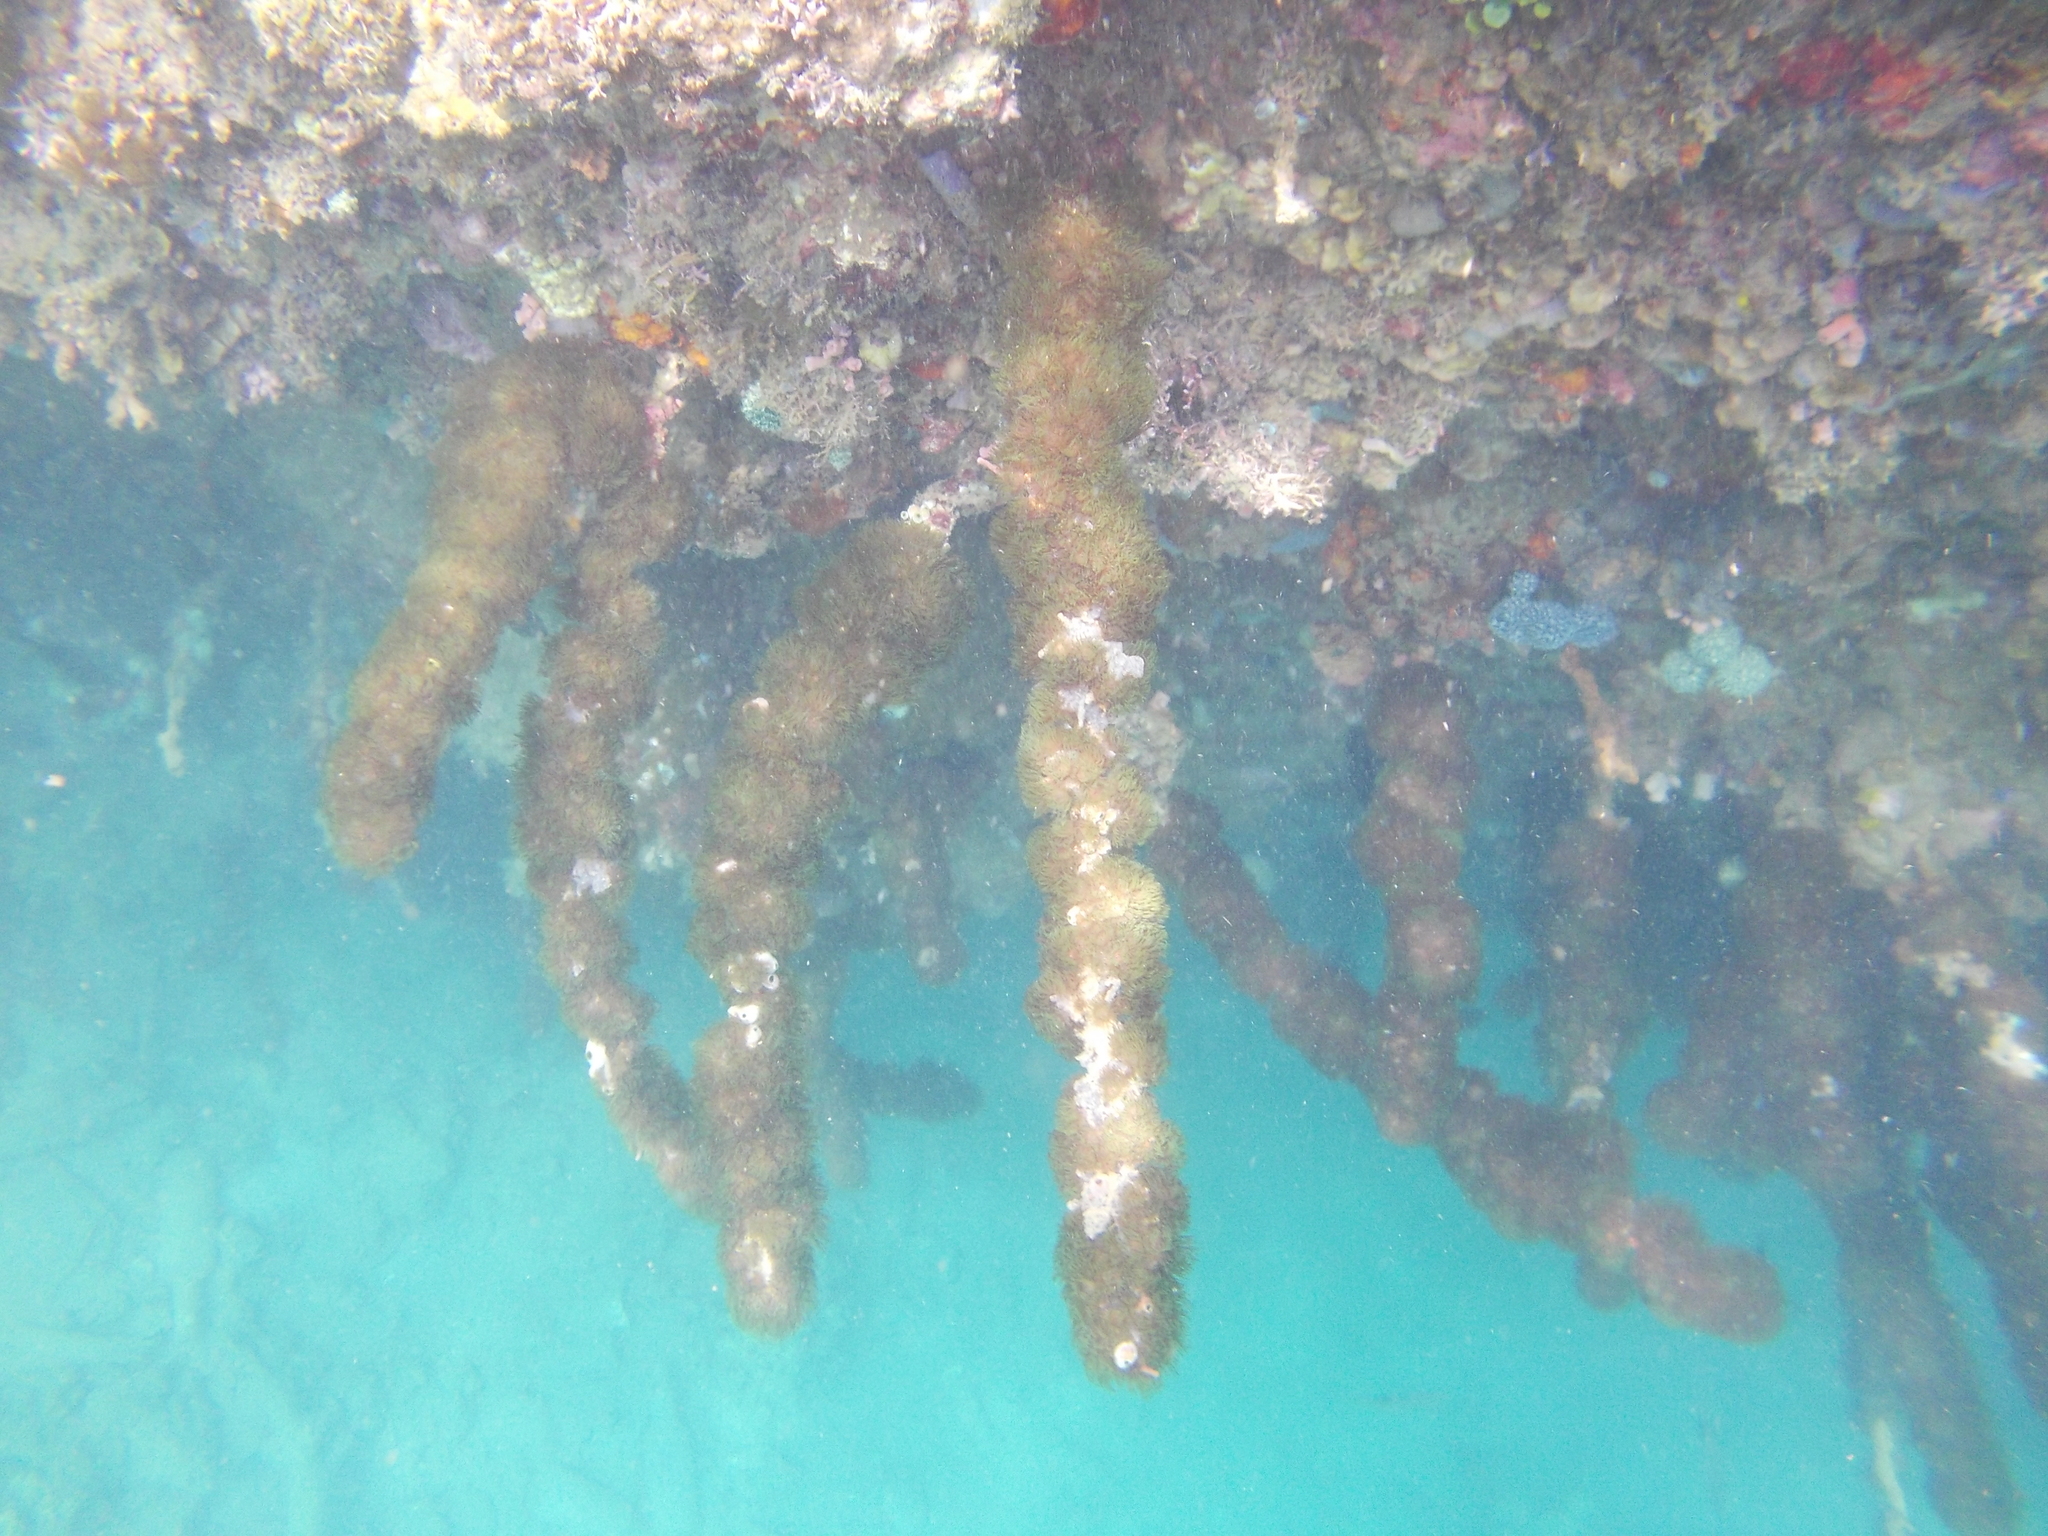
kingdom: Animalia
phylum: Cnidaria
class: Anthozoa
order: Zoantharia
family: Zoanthidae
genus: Acrozoanthus
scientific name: Acrozoanthus australiae
